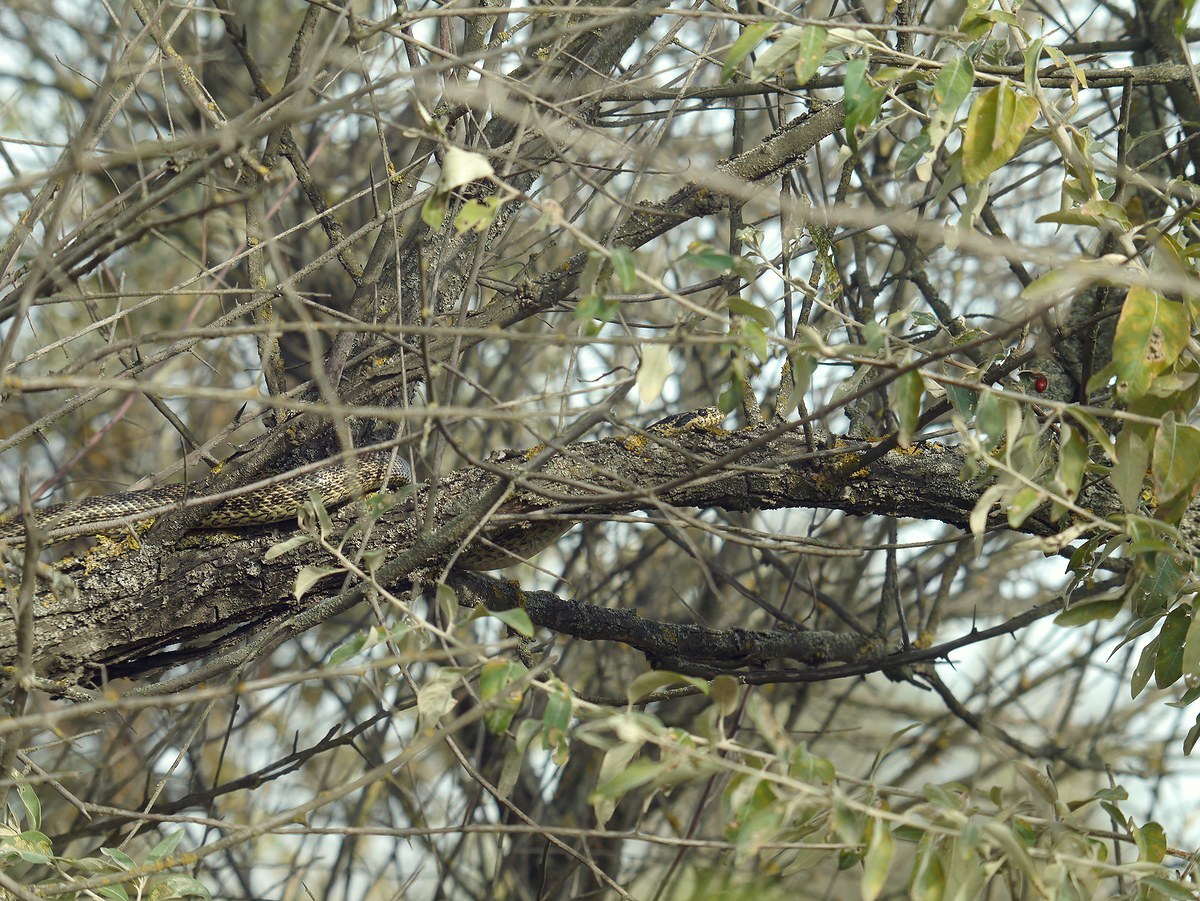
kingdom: Animalia
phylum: Chordata
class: Squamata
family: Colubridae
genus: Elaphe
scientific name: Elaphe sauromates
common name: Eastern four-lined ratsnake
